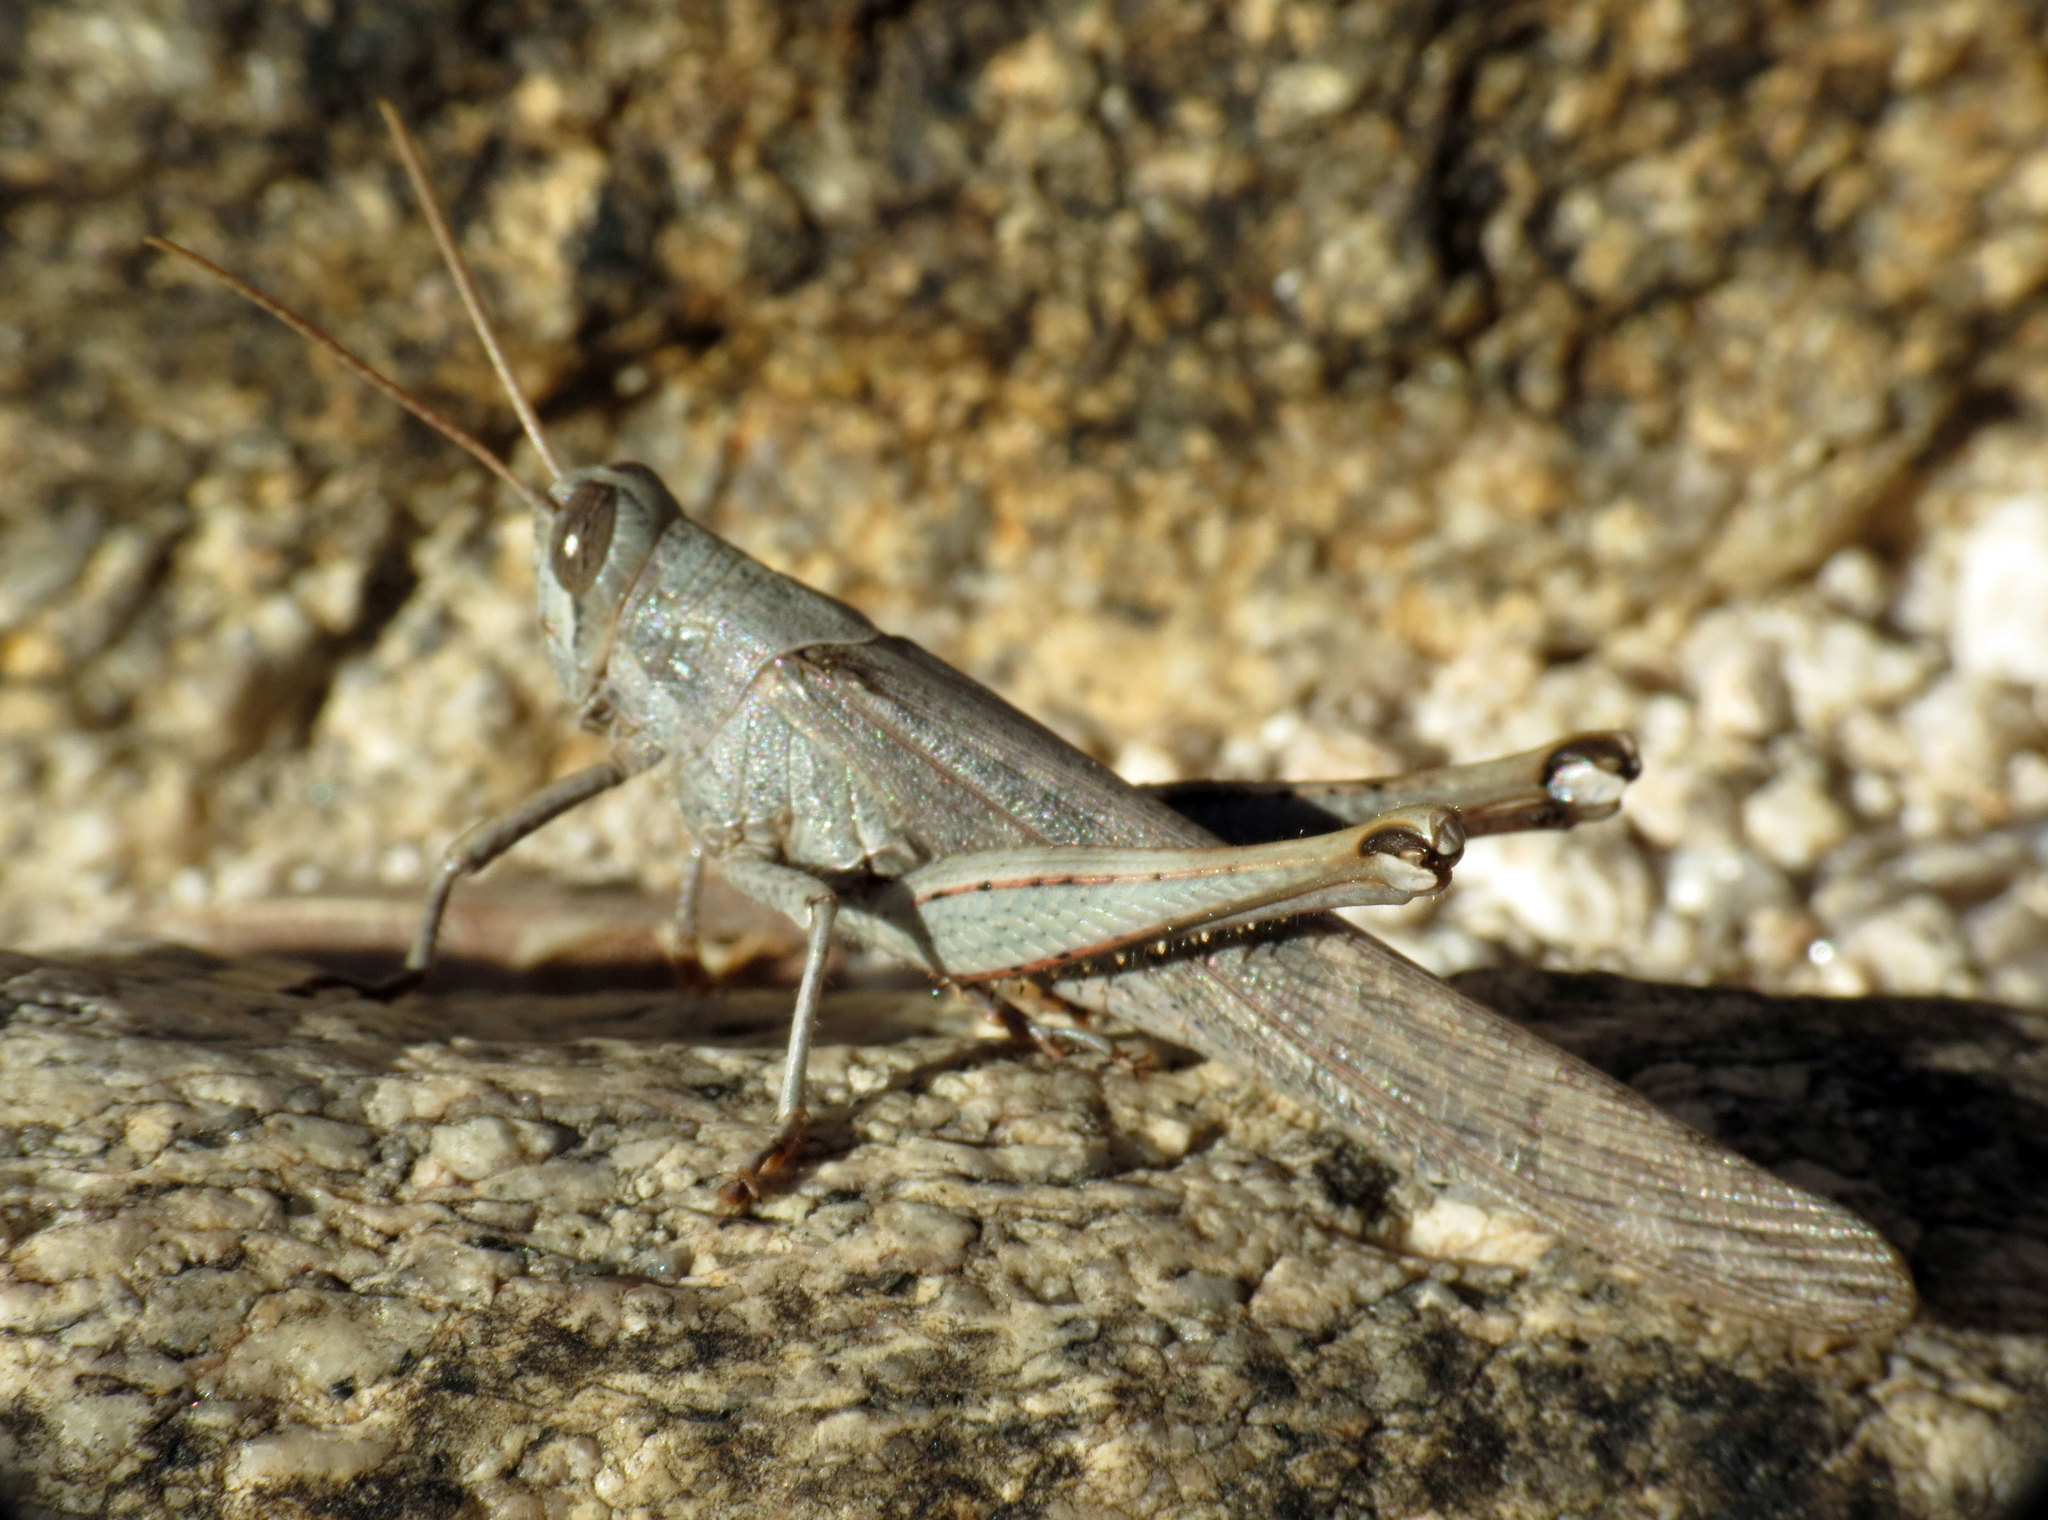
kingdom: Animalia
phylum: Arthropoda
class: Insecta
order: Orthoptera
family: Acrididae
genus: Schistocerca
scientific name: Schistocerca nitens
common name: Vagrant grasshopper
